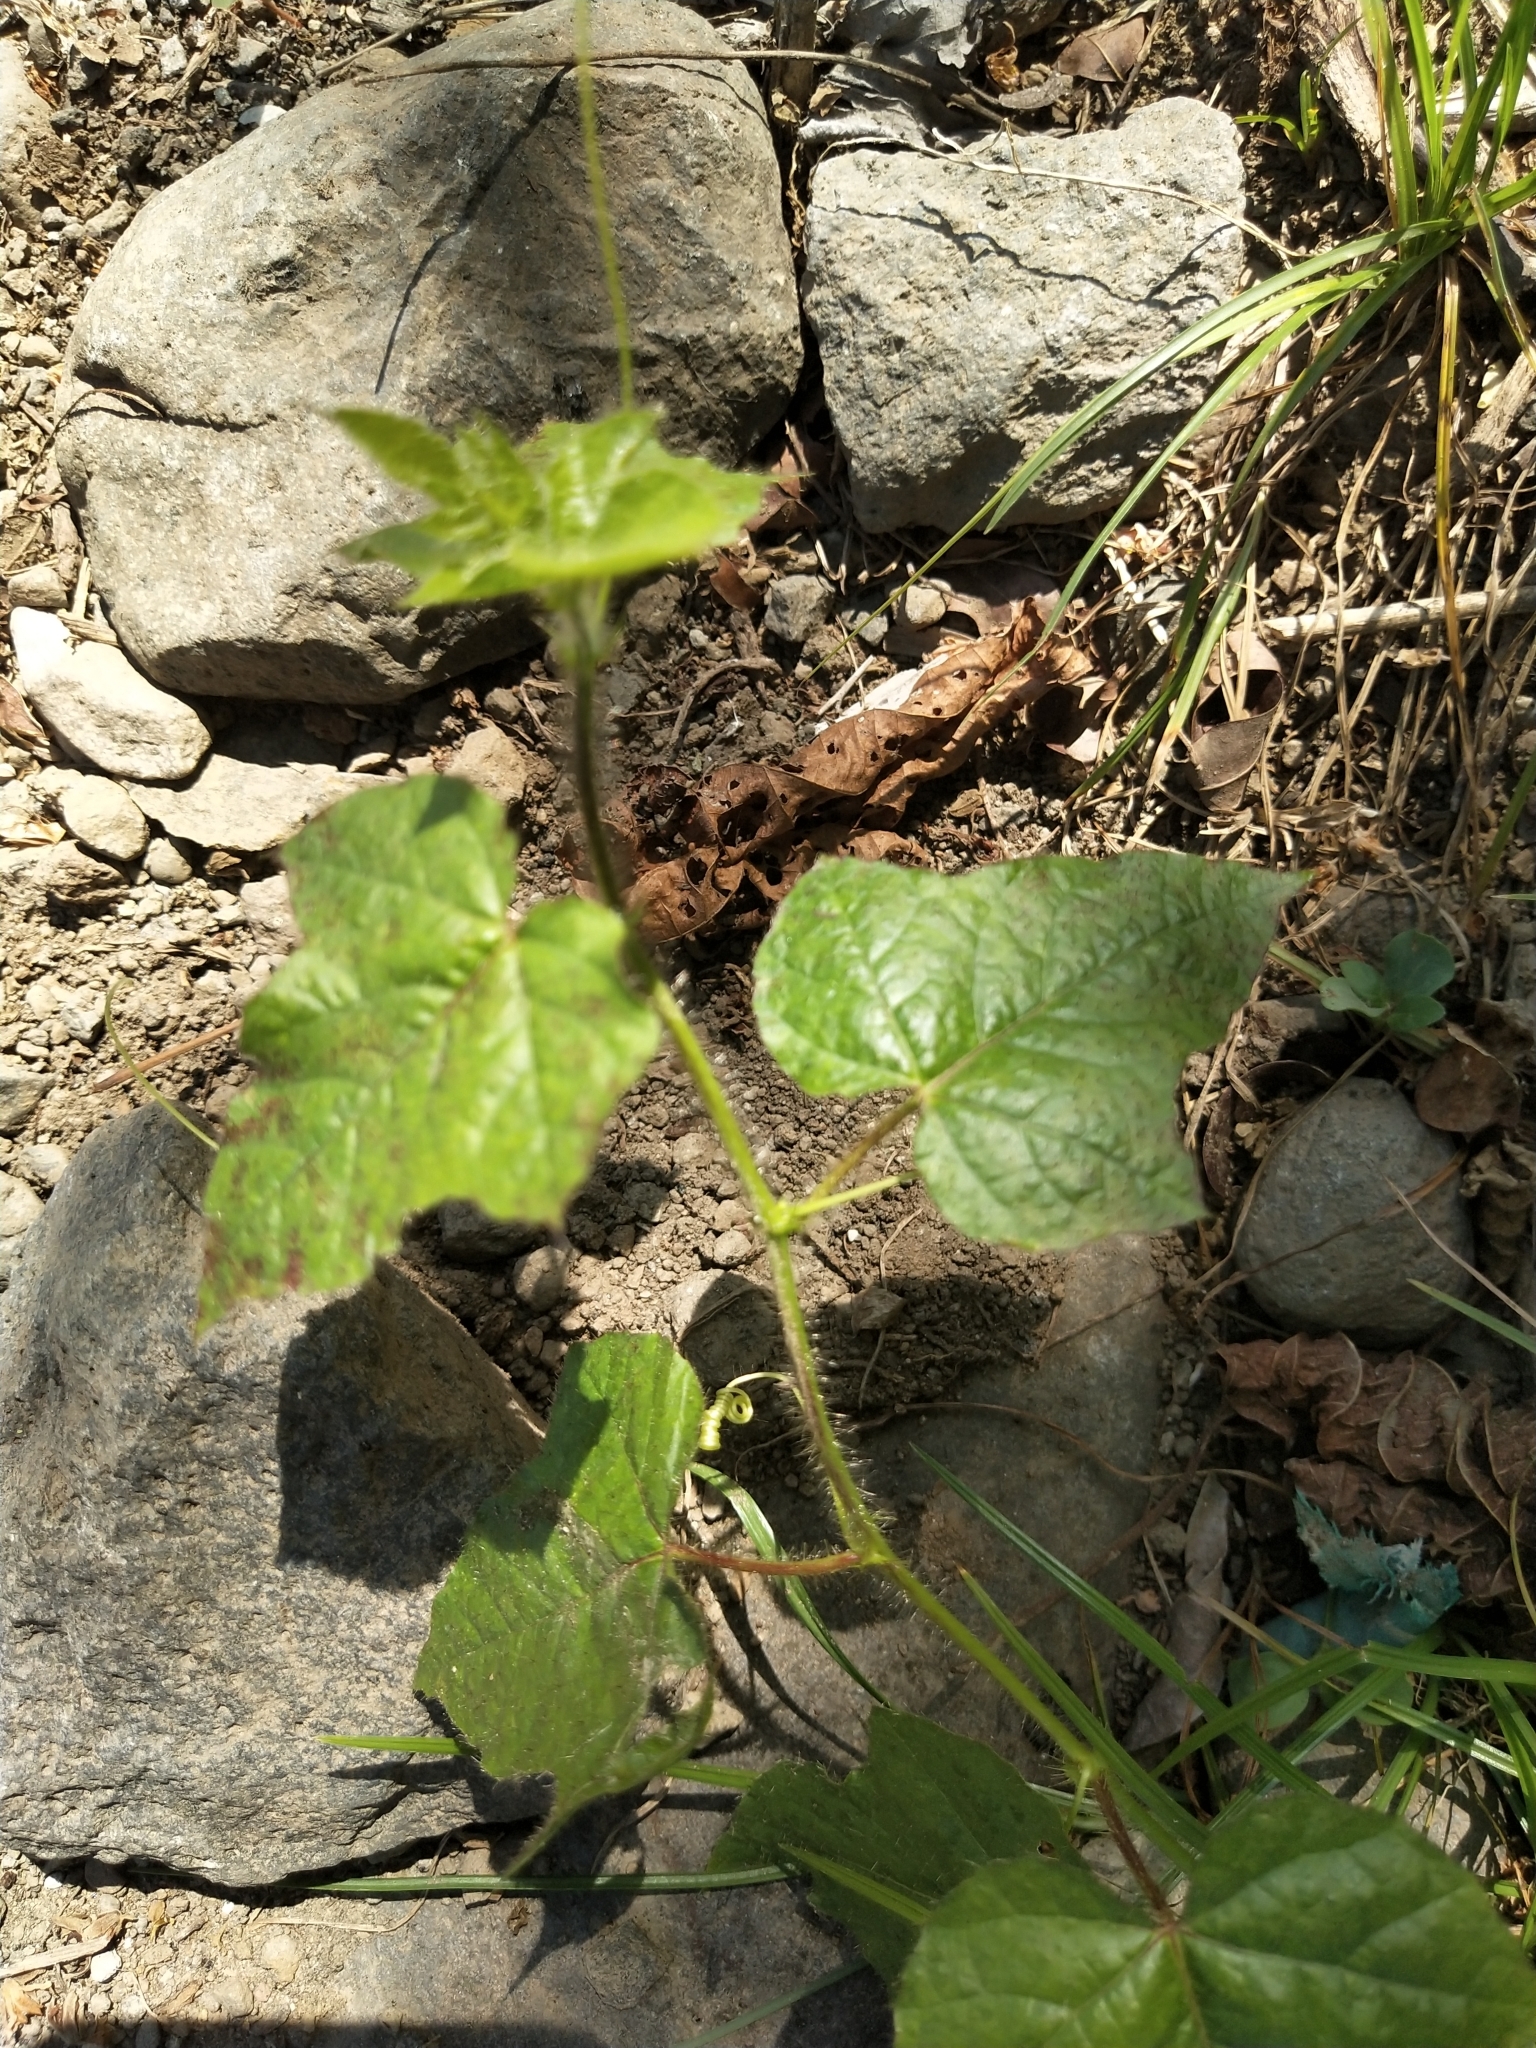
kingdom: Plantae
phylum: Tracheophyta
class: Magnoliopsida
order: Malpighiales
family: Passifloraceae
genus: Passiflora
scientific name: Passiflora foetida
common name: Fetid passionflower
